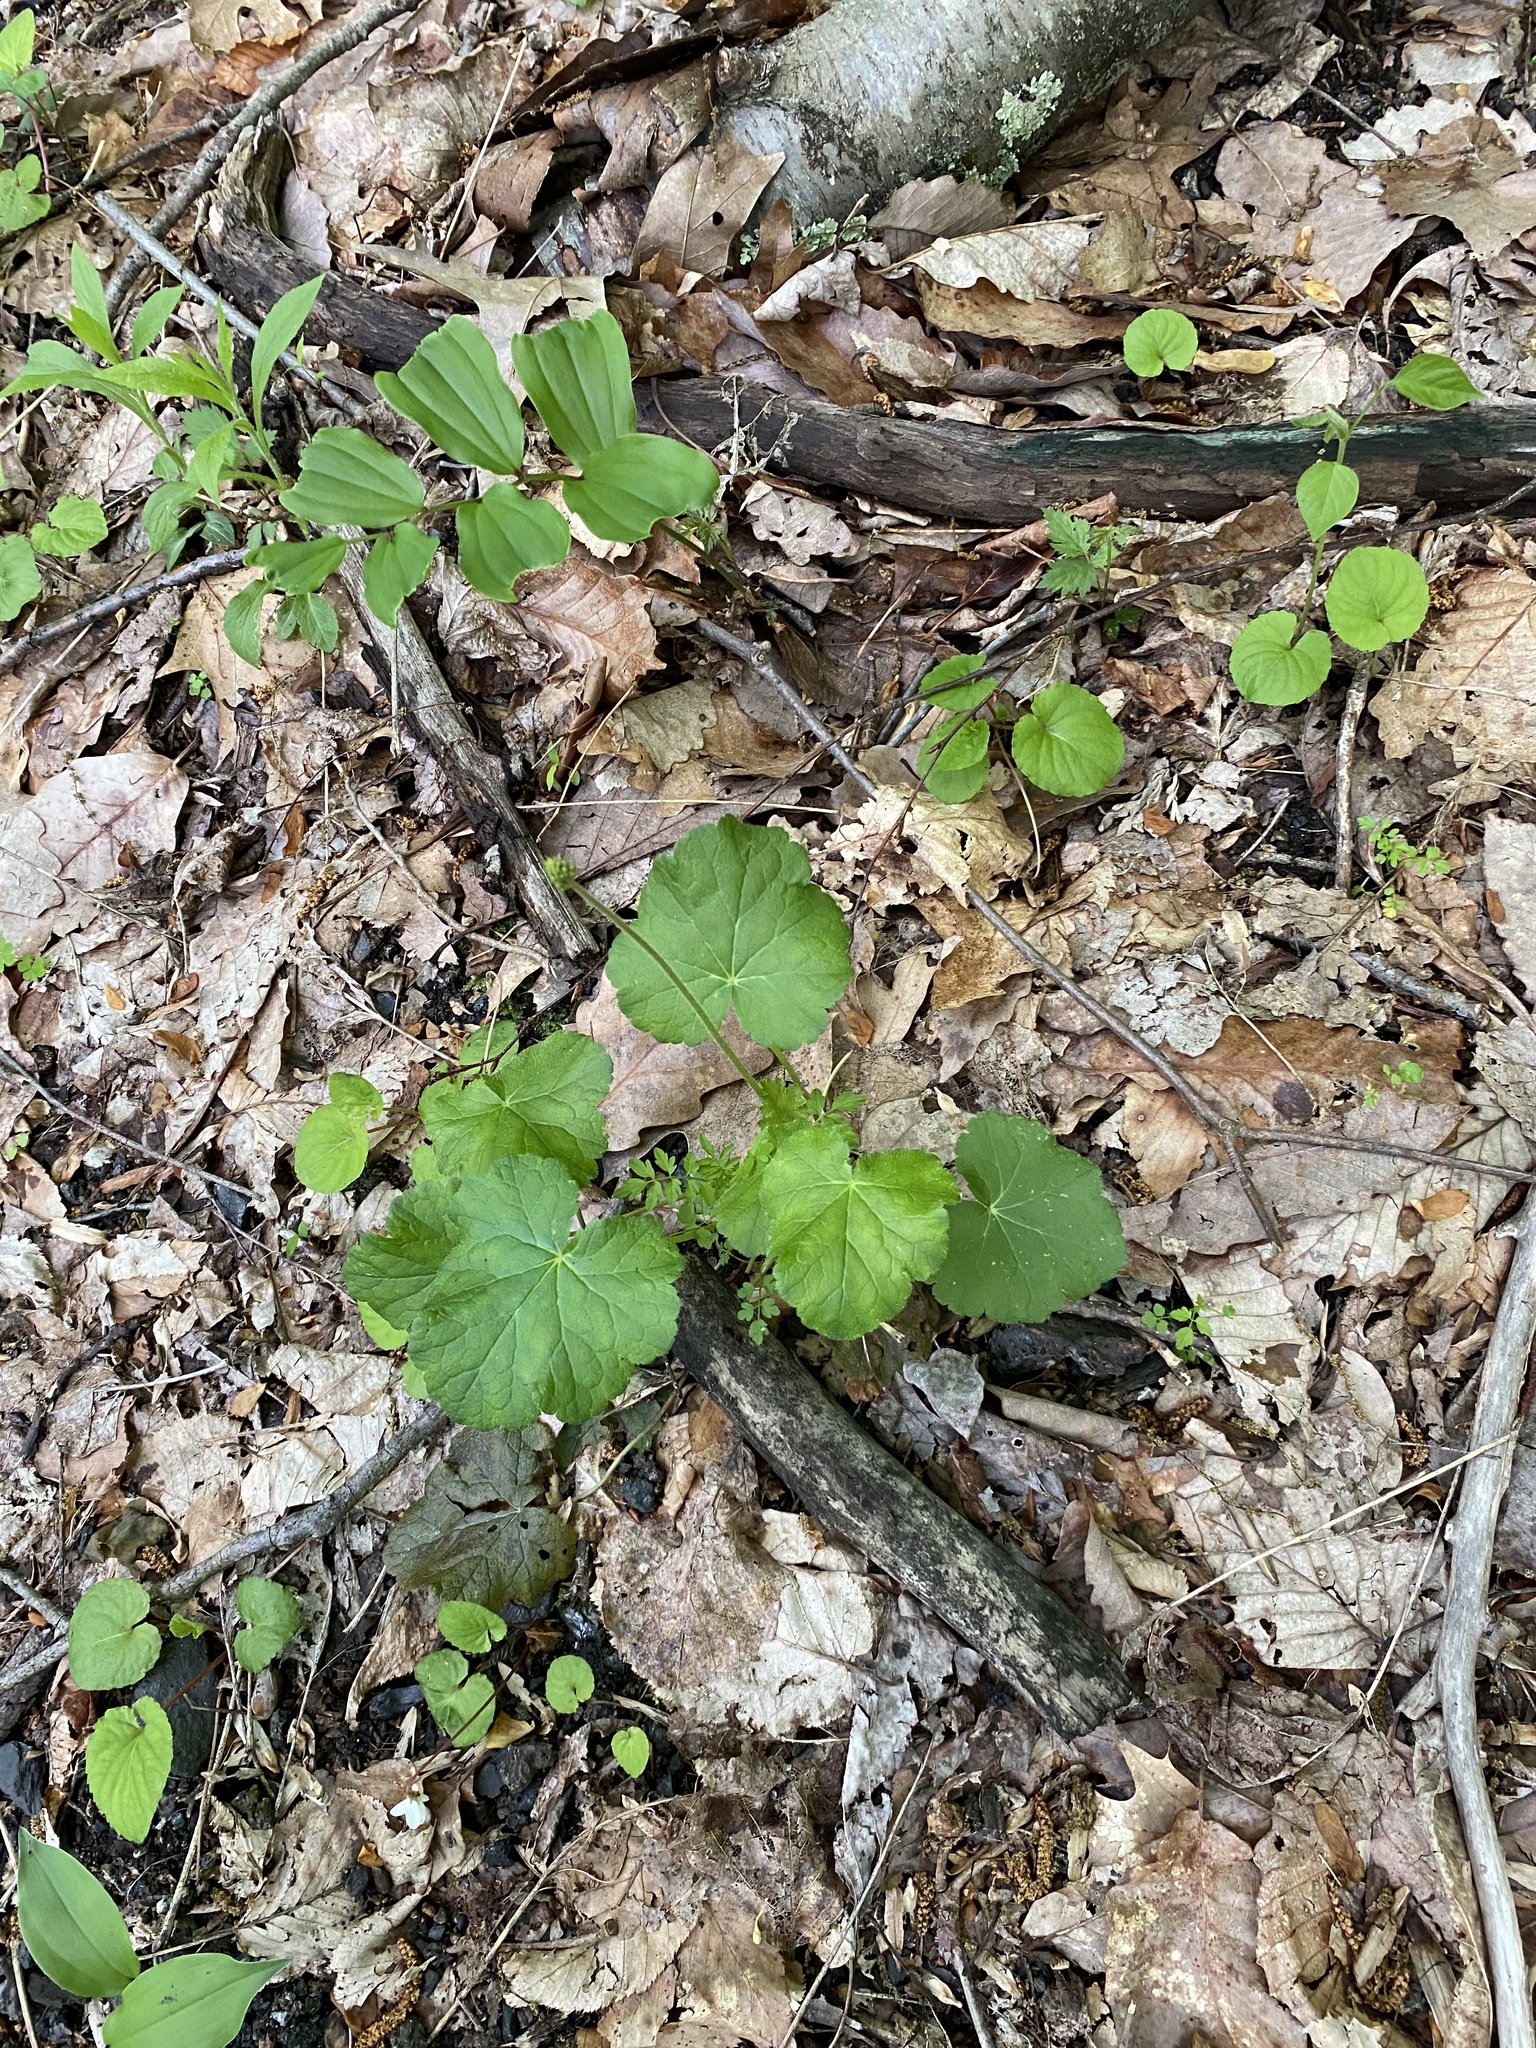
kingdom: Plantae
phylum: Tracheophyta
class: Magnoliopsida
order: Saxifragales
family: Saxifragaceae
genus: Heuchera
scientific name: Heuchera americana
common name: Alumroot
